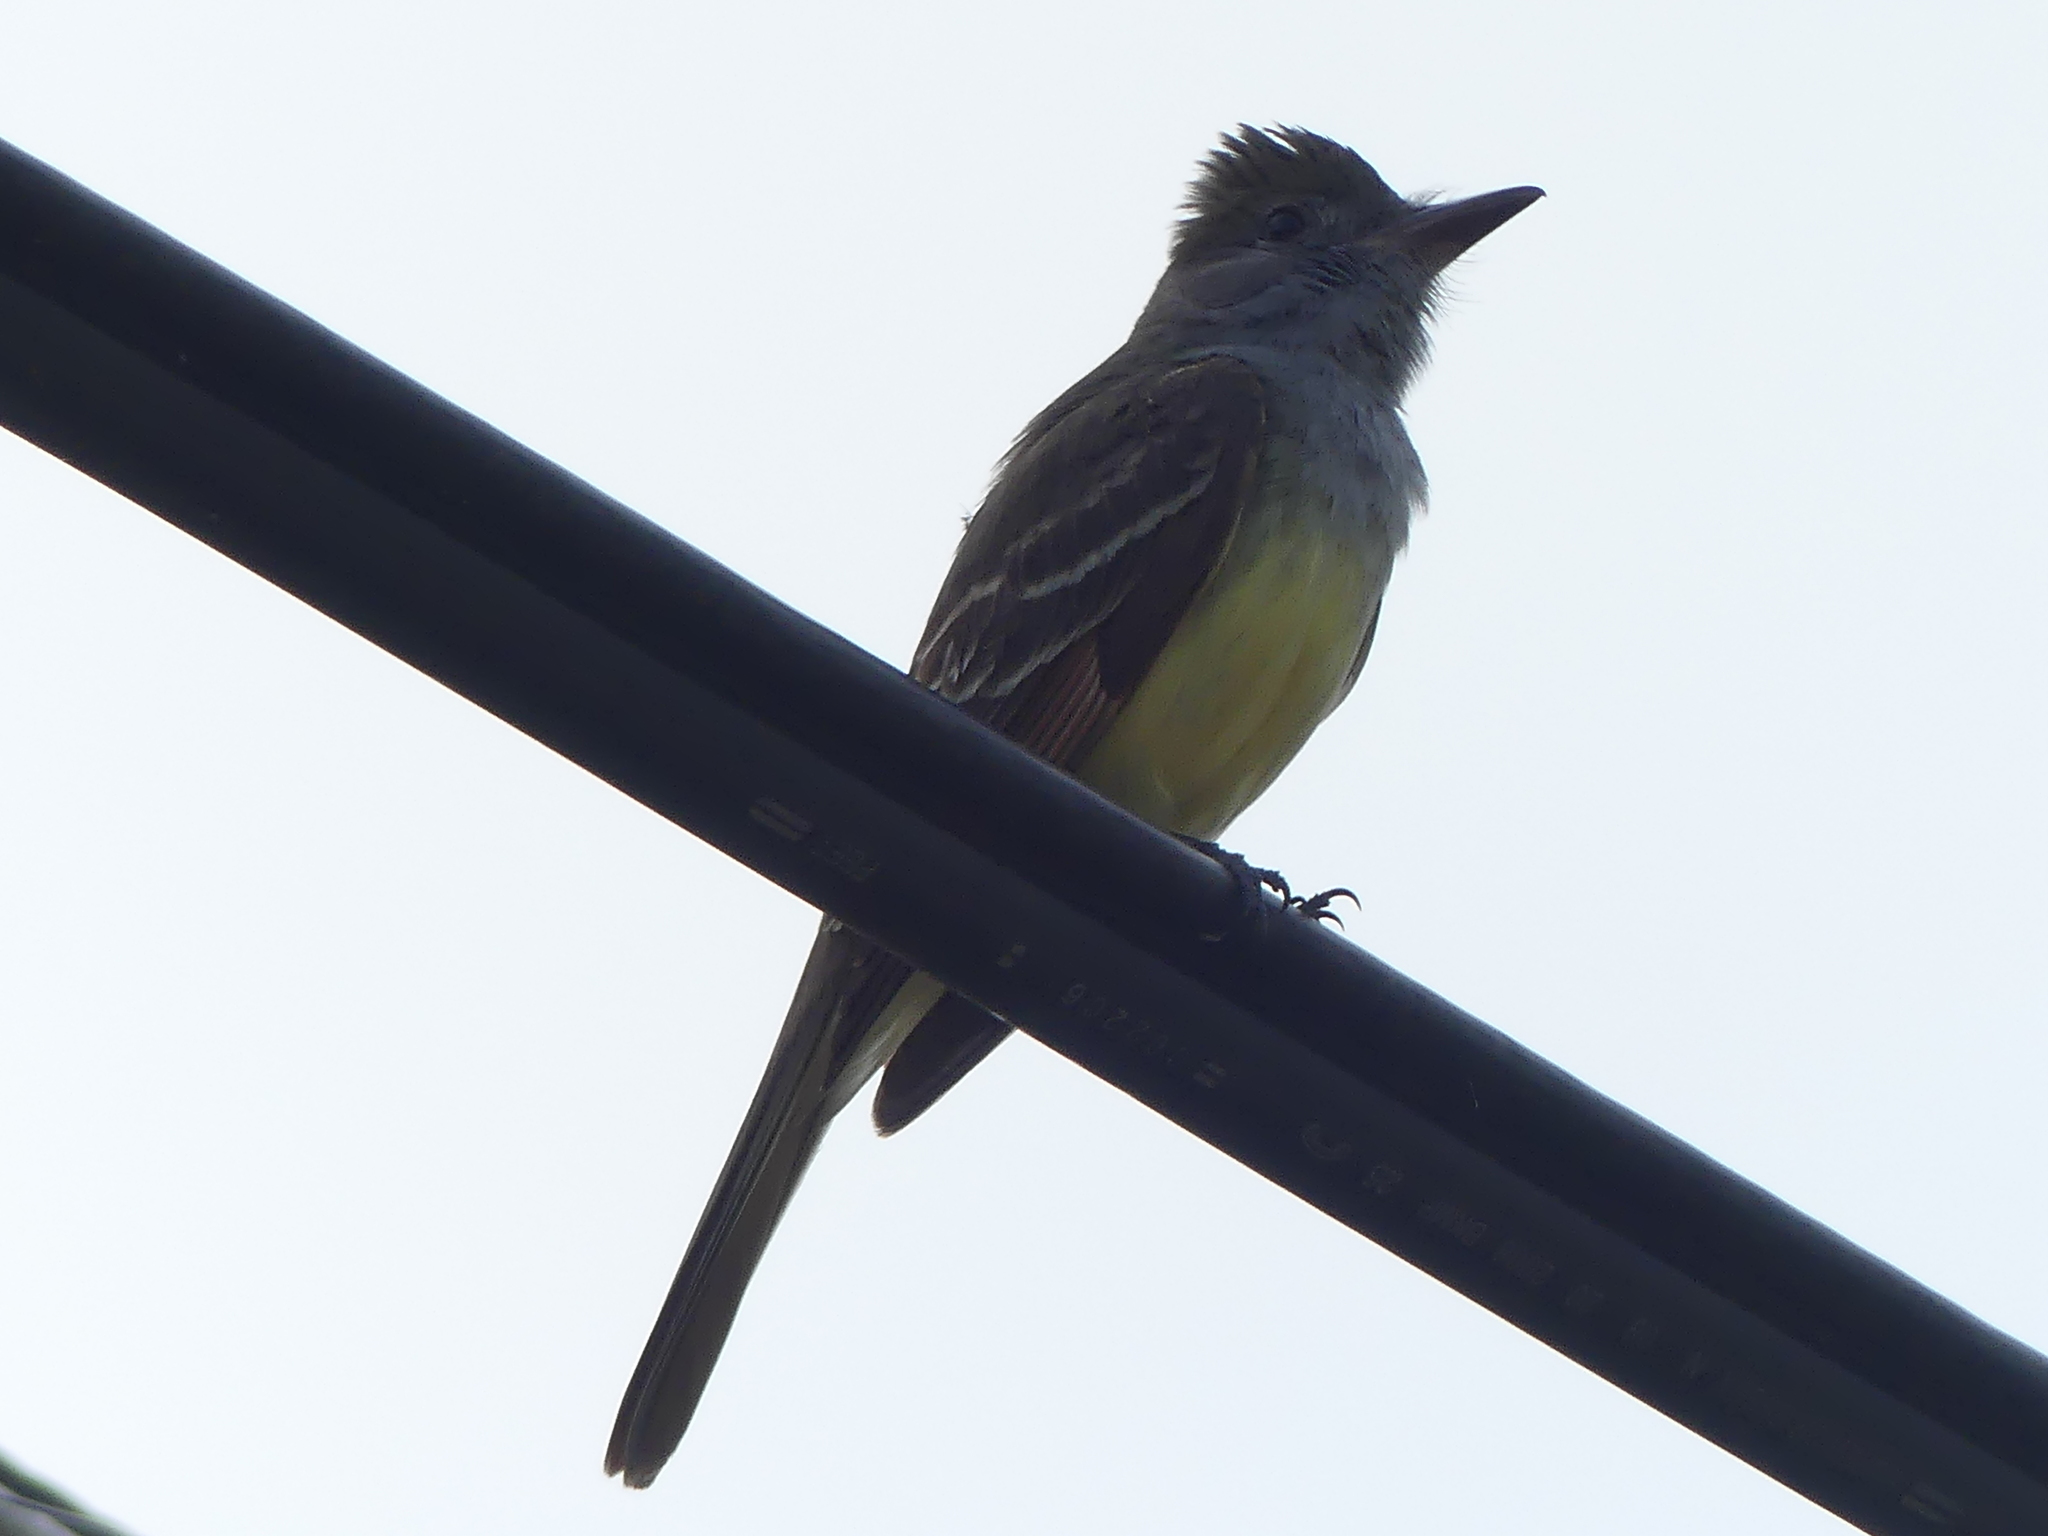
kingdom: Animalia
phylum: Chordata
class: Aves
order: Passeriformes
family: Tyrannidae
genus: Myiarchus
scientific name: Myiarchus crinitus
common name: Great crested flycatcher
